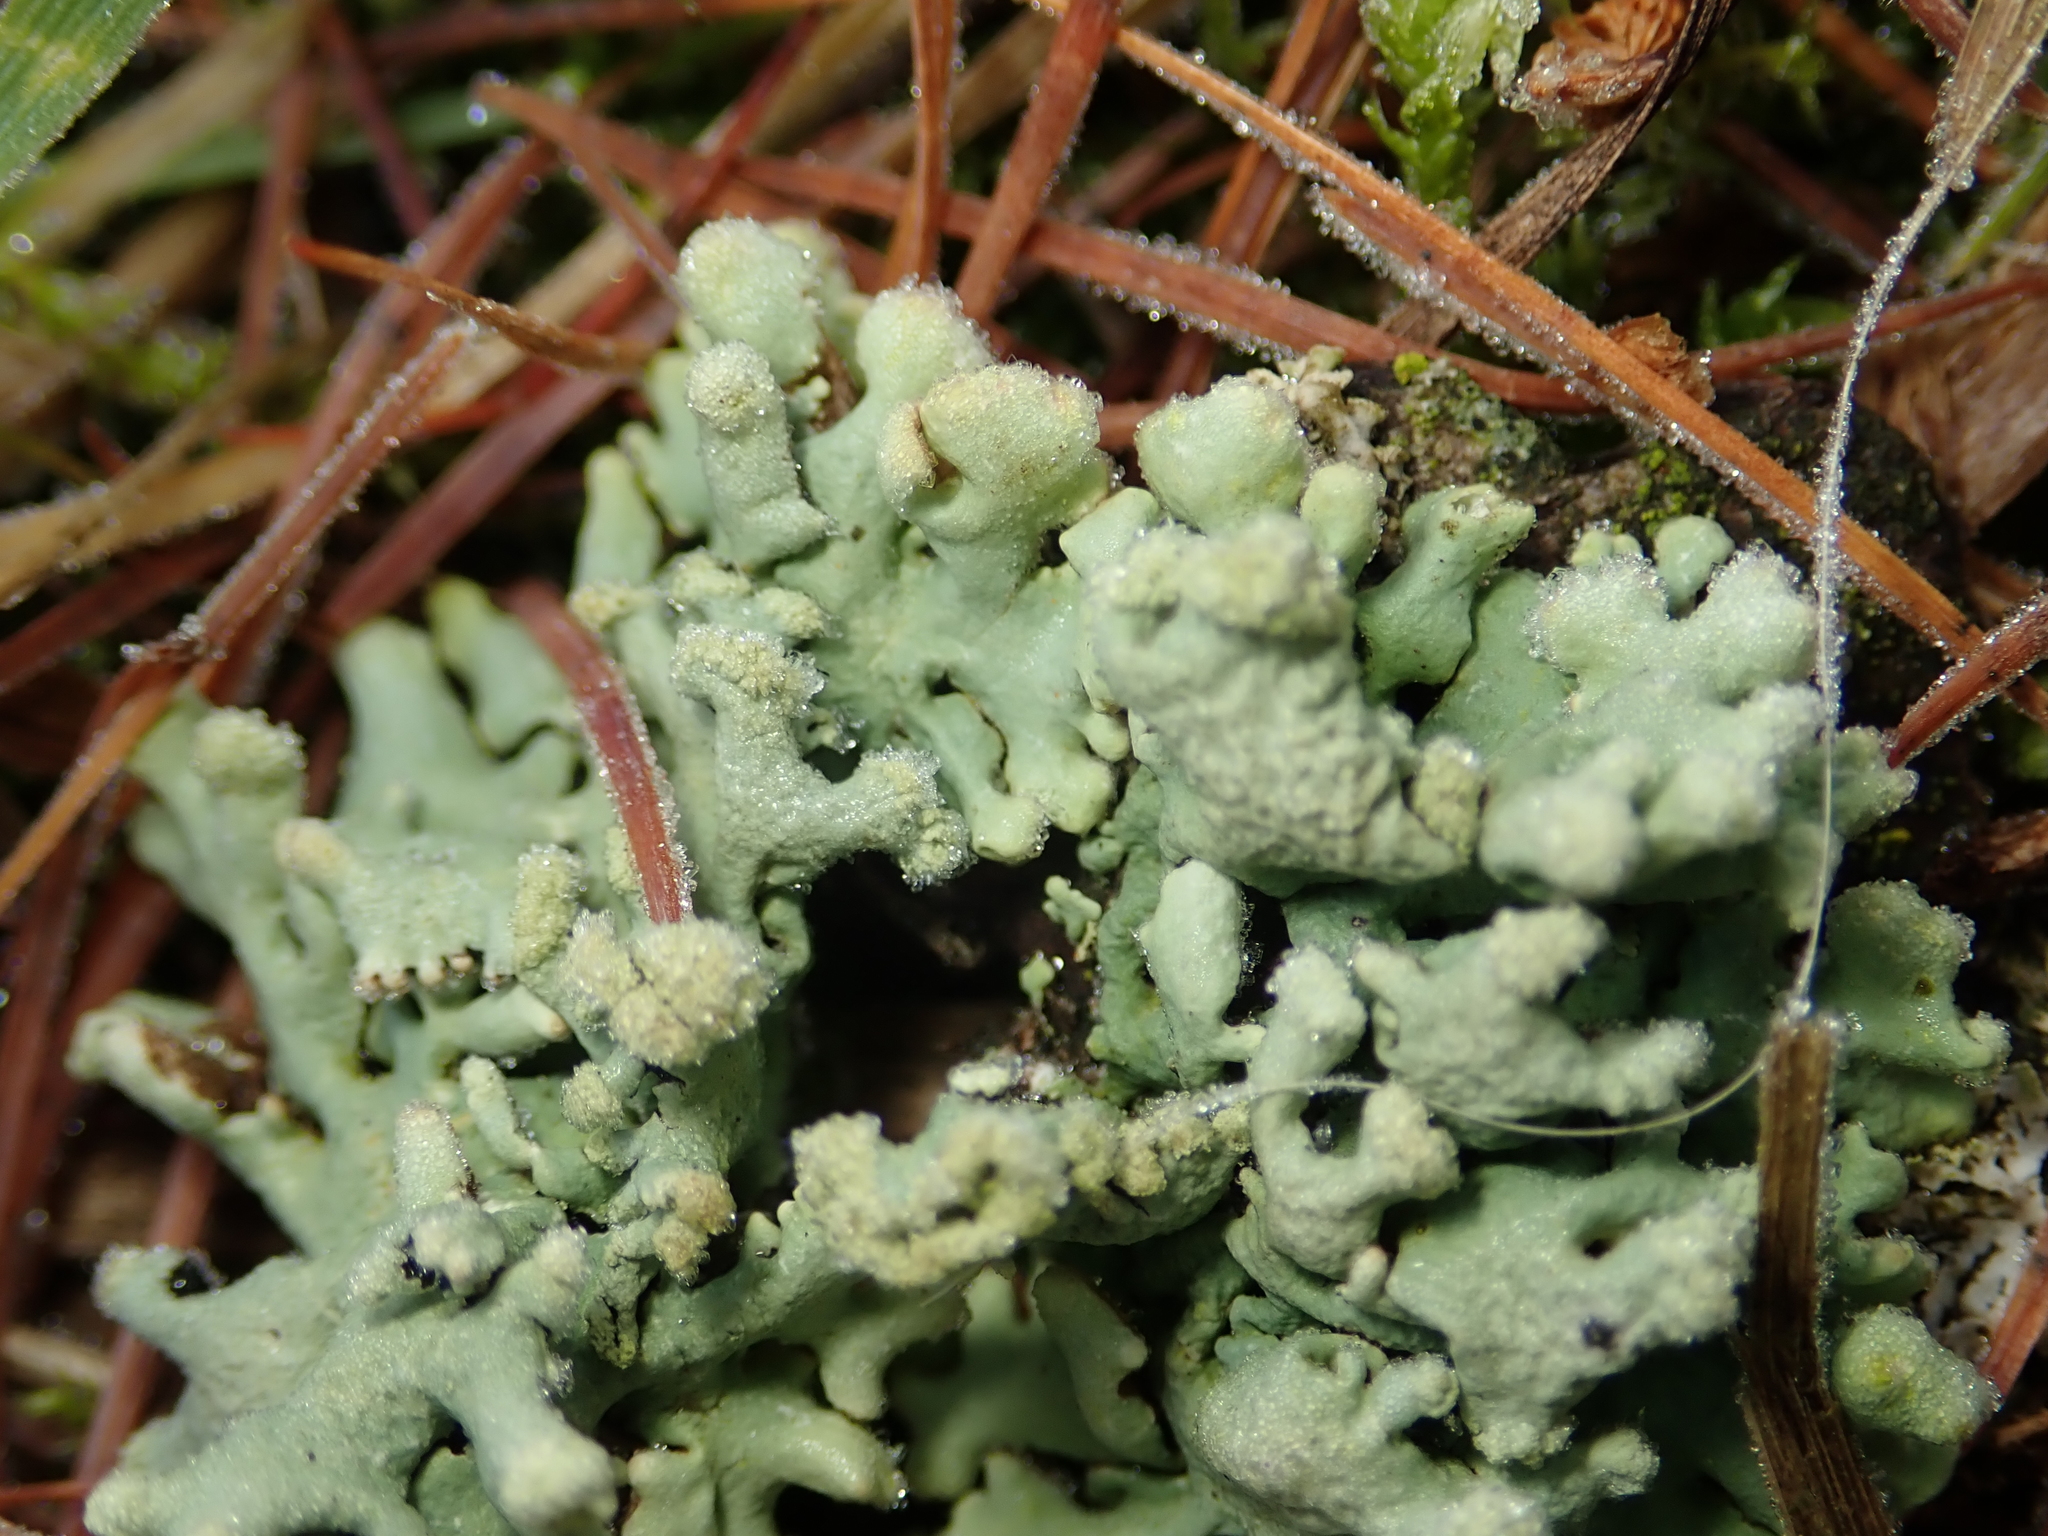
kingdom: Fungi
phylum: Ascomycota
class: Lecanoromycetes
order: Lecanorales
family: Parmeliaceae
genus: Hypogymnia
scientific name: Hypogymnia tubulosa
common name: Powder-headed tube lichen
